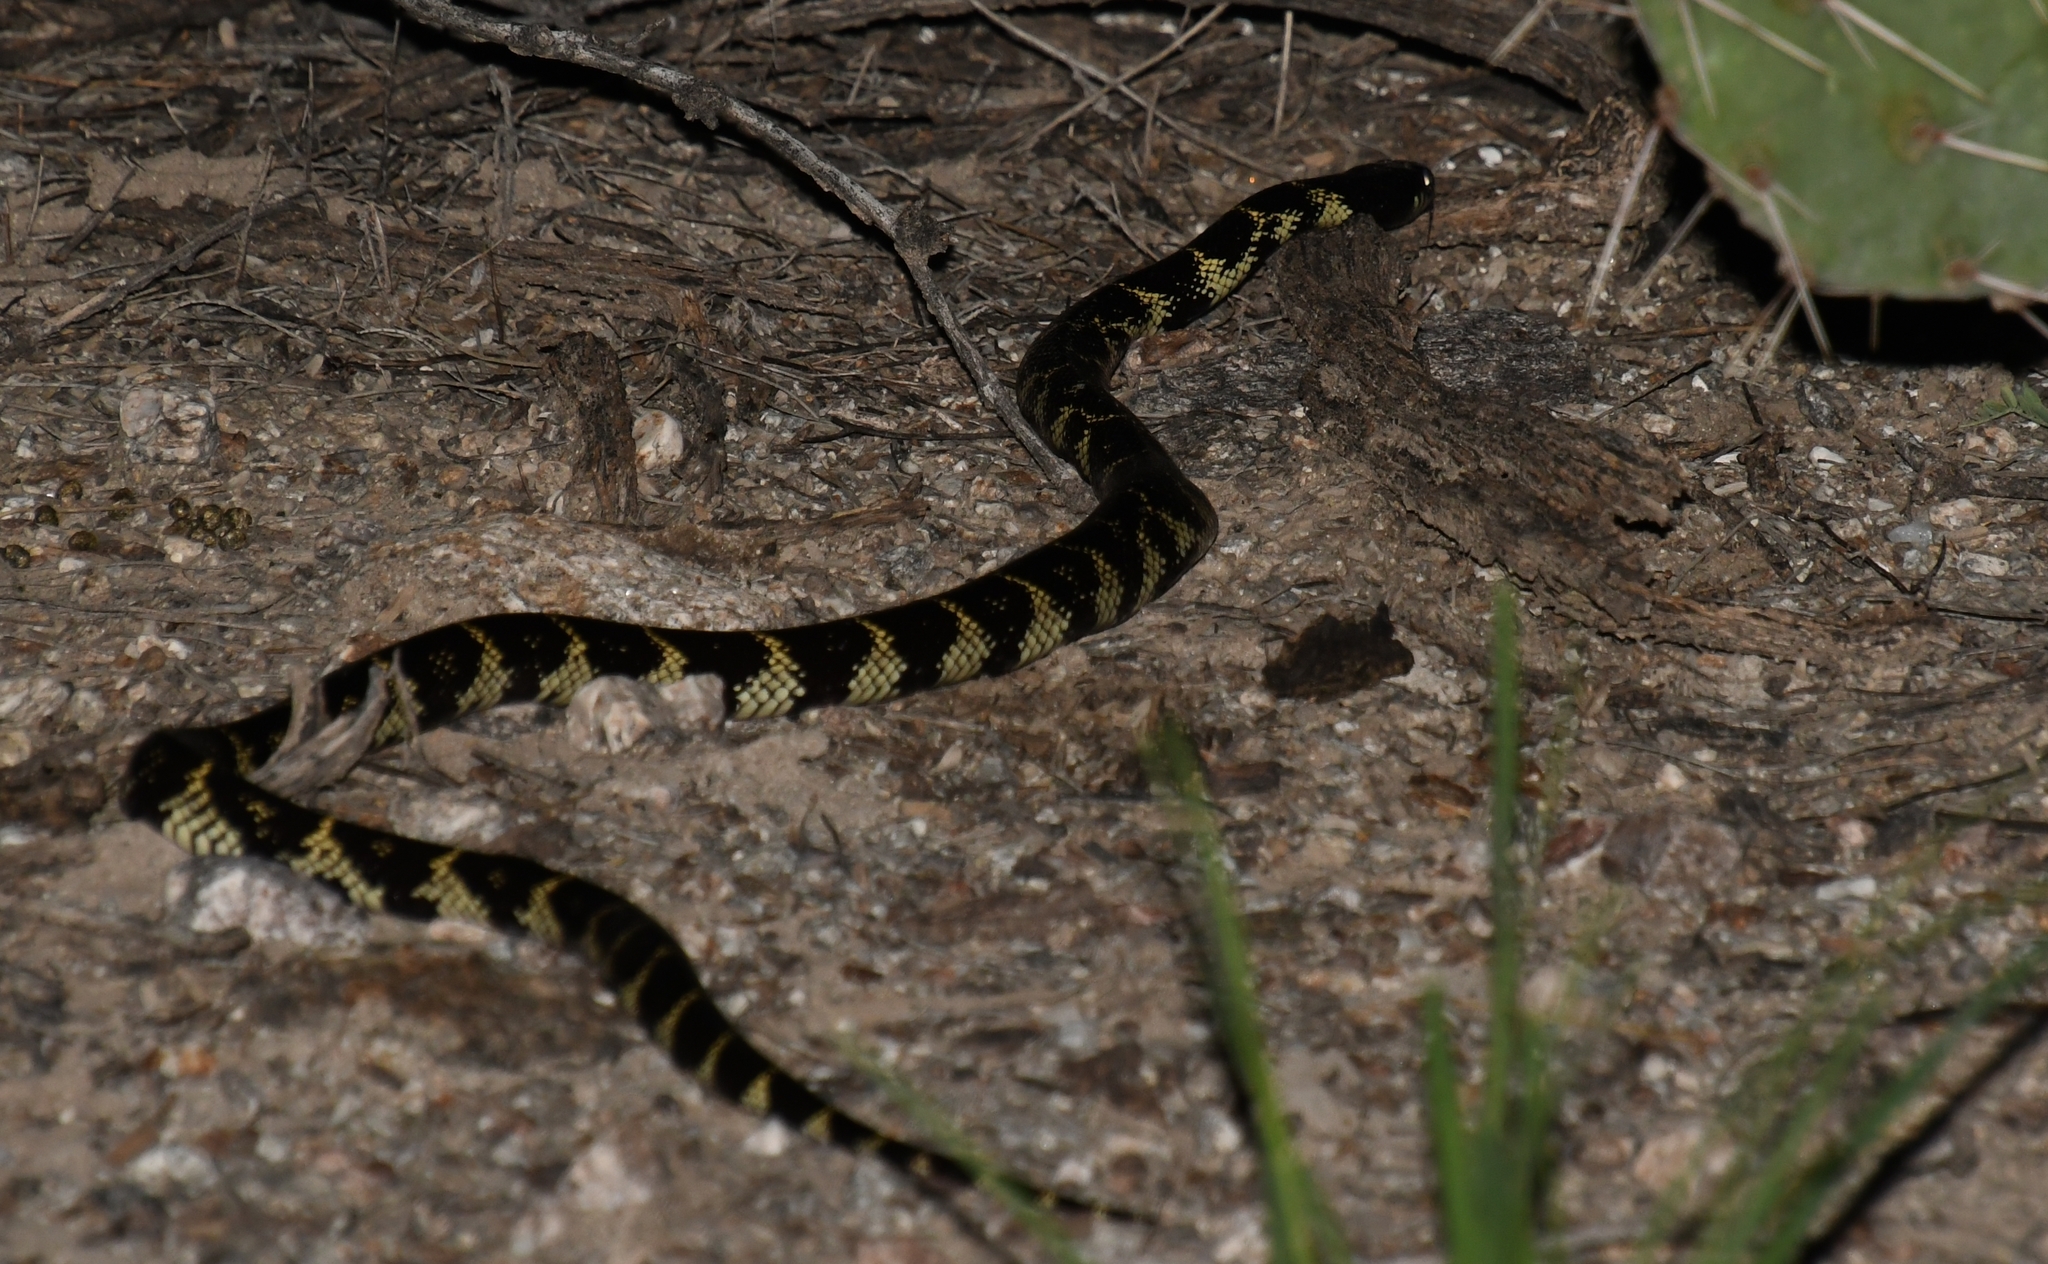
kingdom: Animalia
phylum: Chordata
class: Squamata
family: Colubridae
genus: Lampropeltis
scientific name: Lampropeltis californiae
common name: California kingsnake
